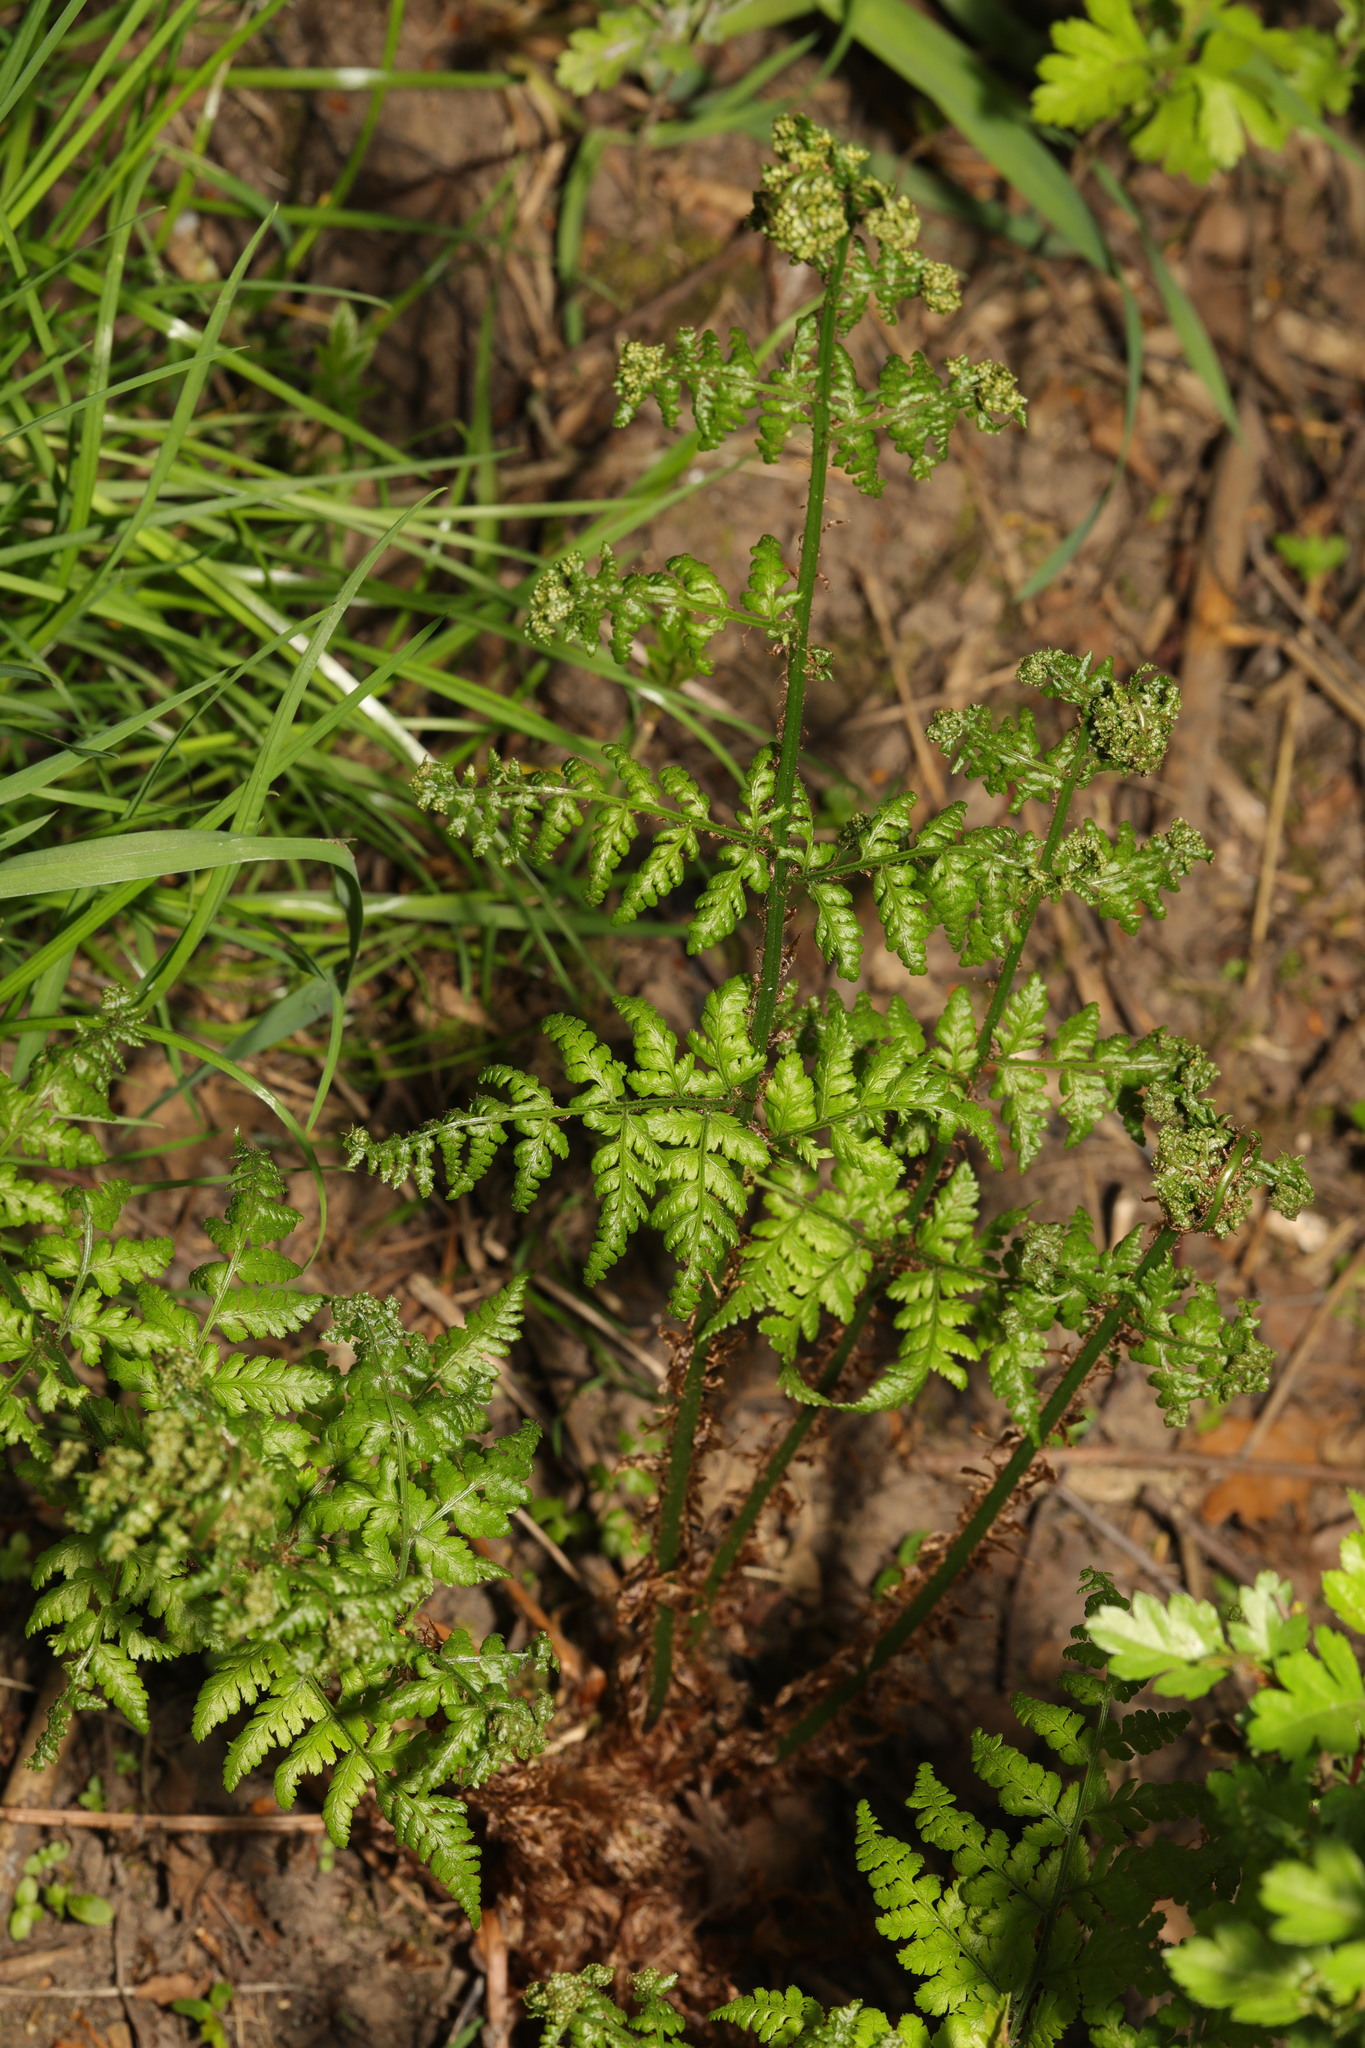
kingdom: Plantae
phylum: Tracheophyta
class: Polypodiopsida
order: Polypodiales
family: Dryopteridaceae
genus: Dryopteris
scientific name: Dryopteris dilatata
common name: Broad buckler-fern
